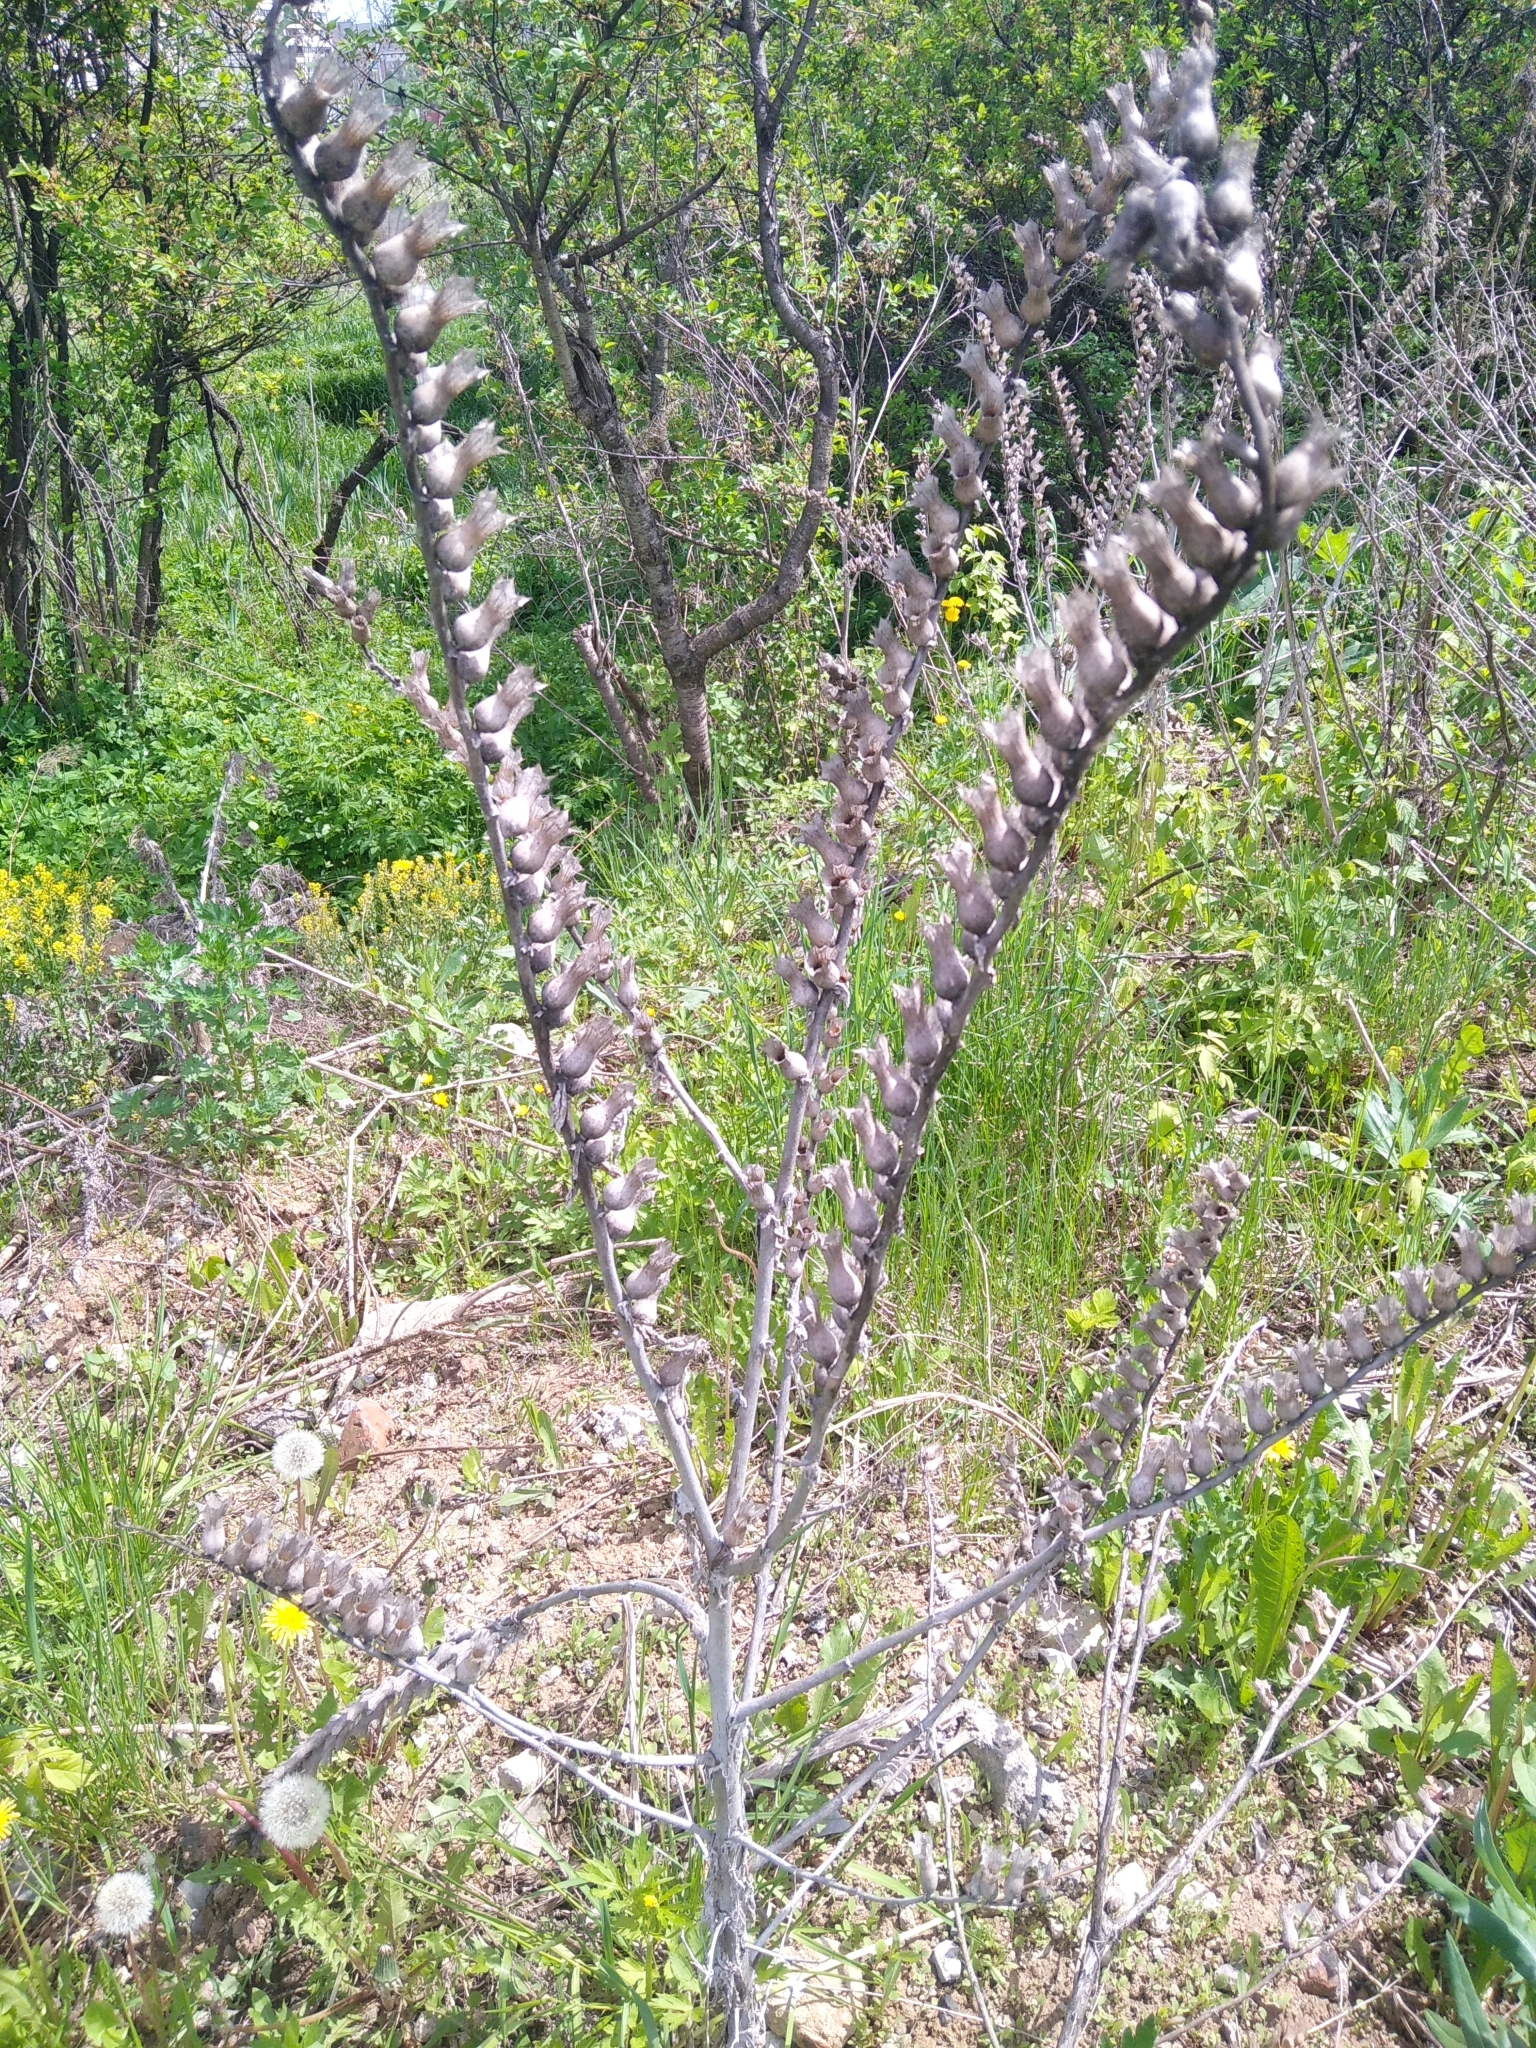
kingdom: Plantae
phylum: Tracheophyta
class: Magnoliopsida
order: Solanales
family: Solanaceae
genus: Hyoscyamus
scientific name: Hyoscyamus niger
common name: Henbane
